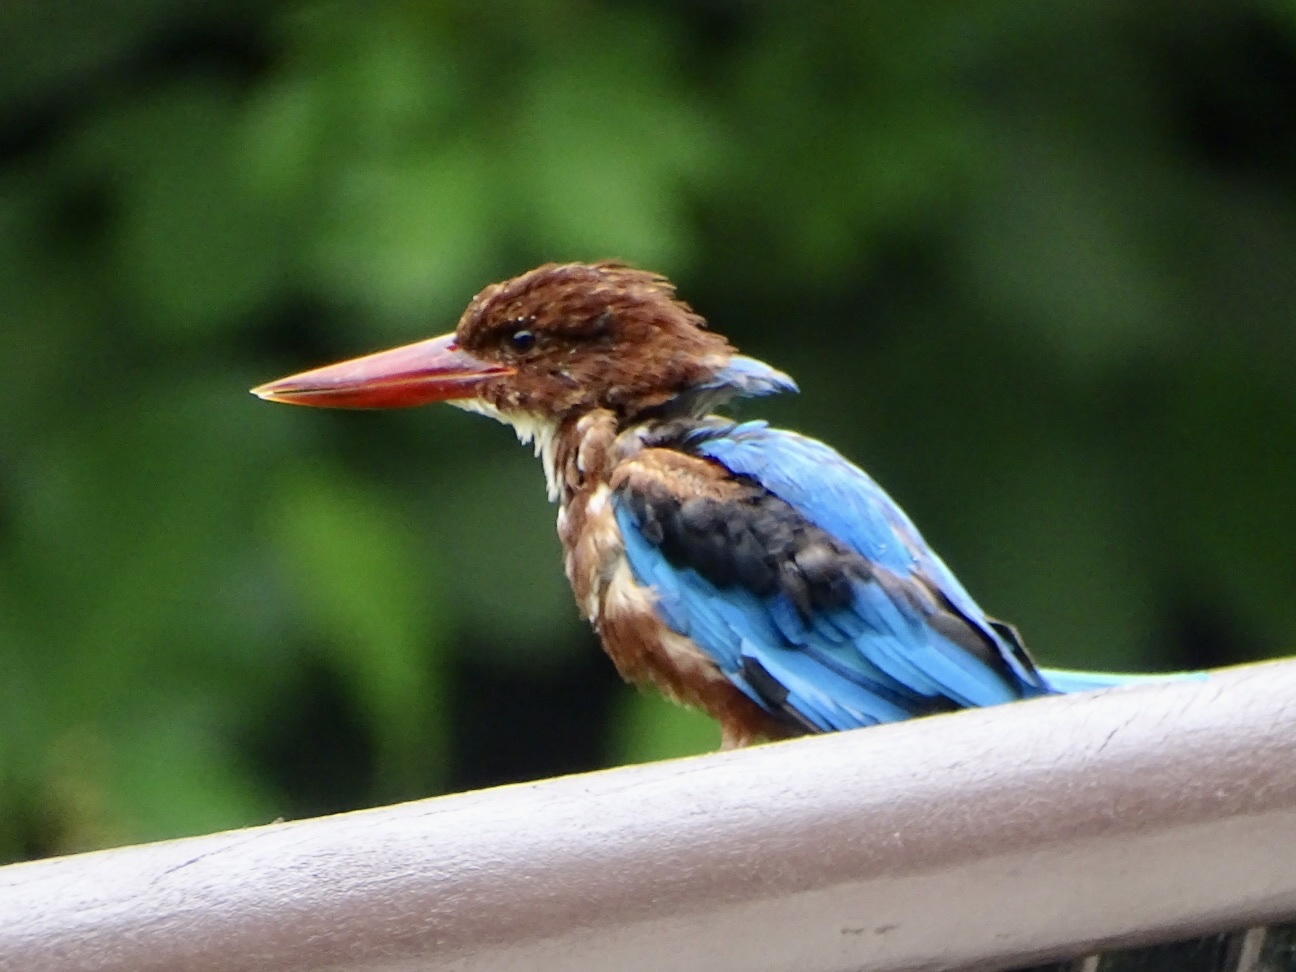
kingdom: Animalia
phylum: Chordata
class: Aves
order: Coraciiformes
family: Alcedinidae
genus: Halcyon
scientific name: Halcyon smyrnensis
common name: White-throated kingfisher
